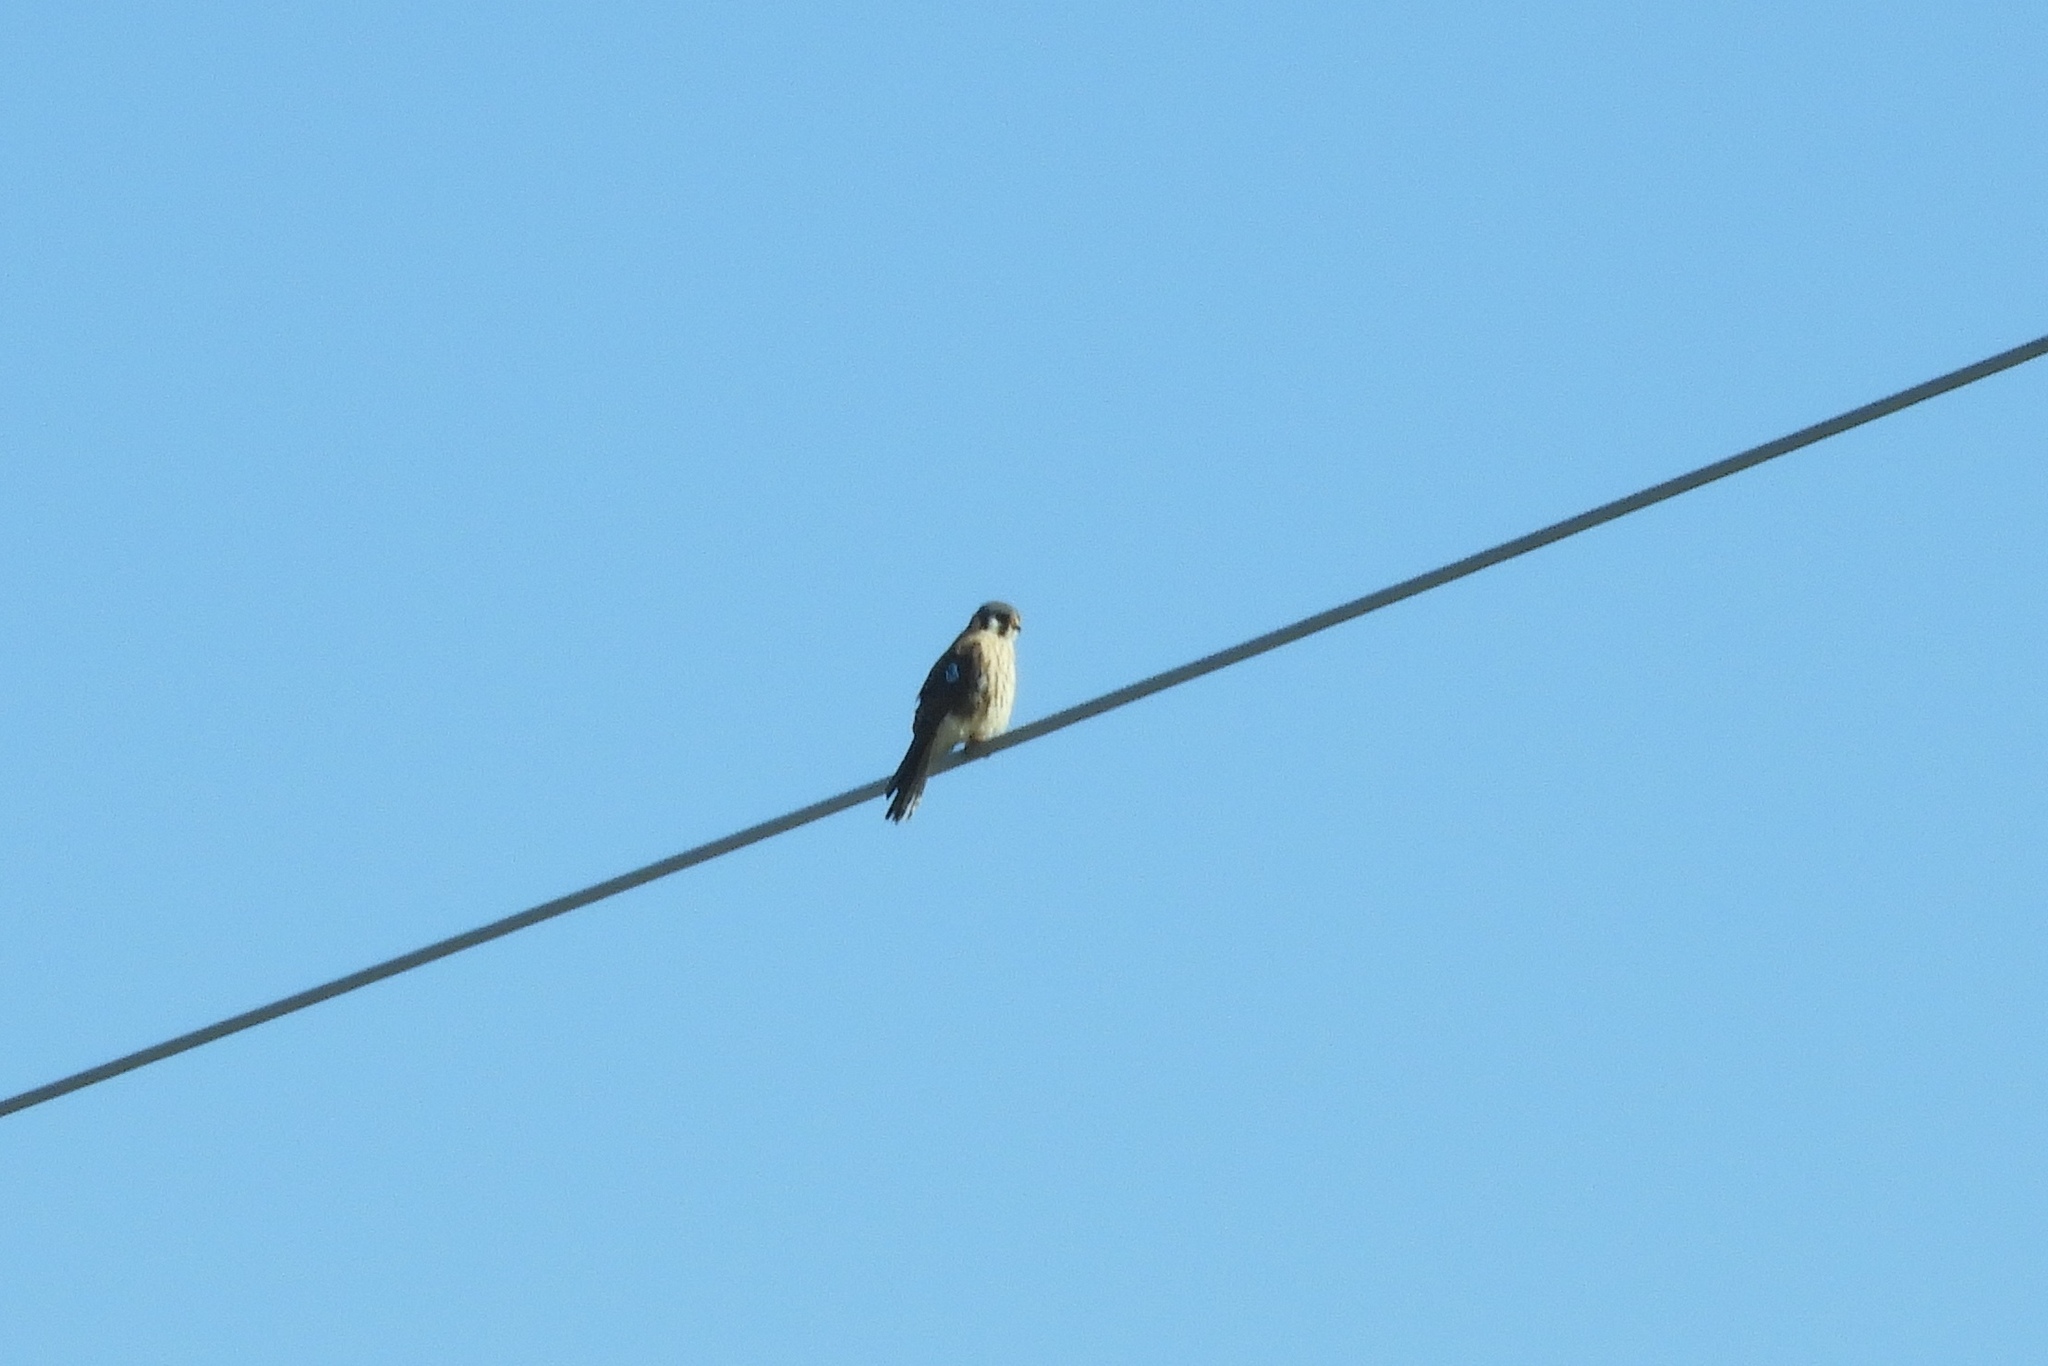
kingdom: Animalia
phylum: Chordata
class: Aves
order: Falconiformes
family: Falconidae
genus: Falco
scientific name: Falco sparverius
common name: American kestrel
